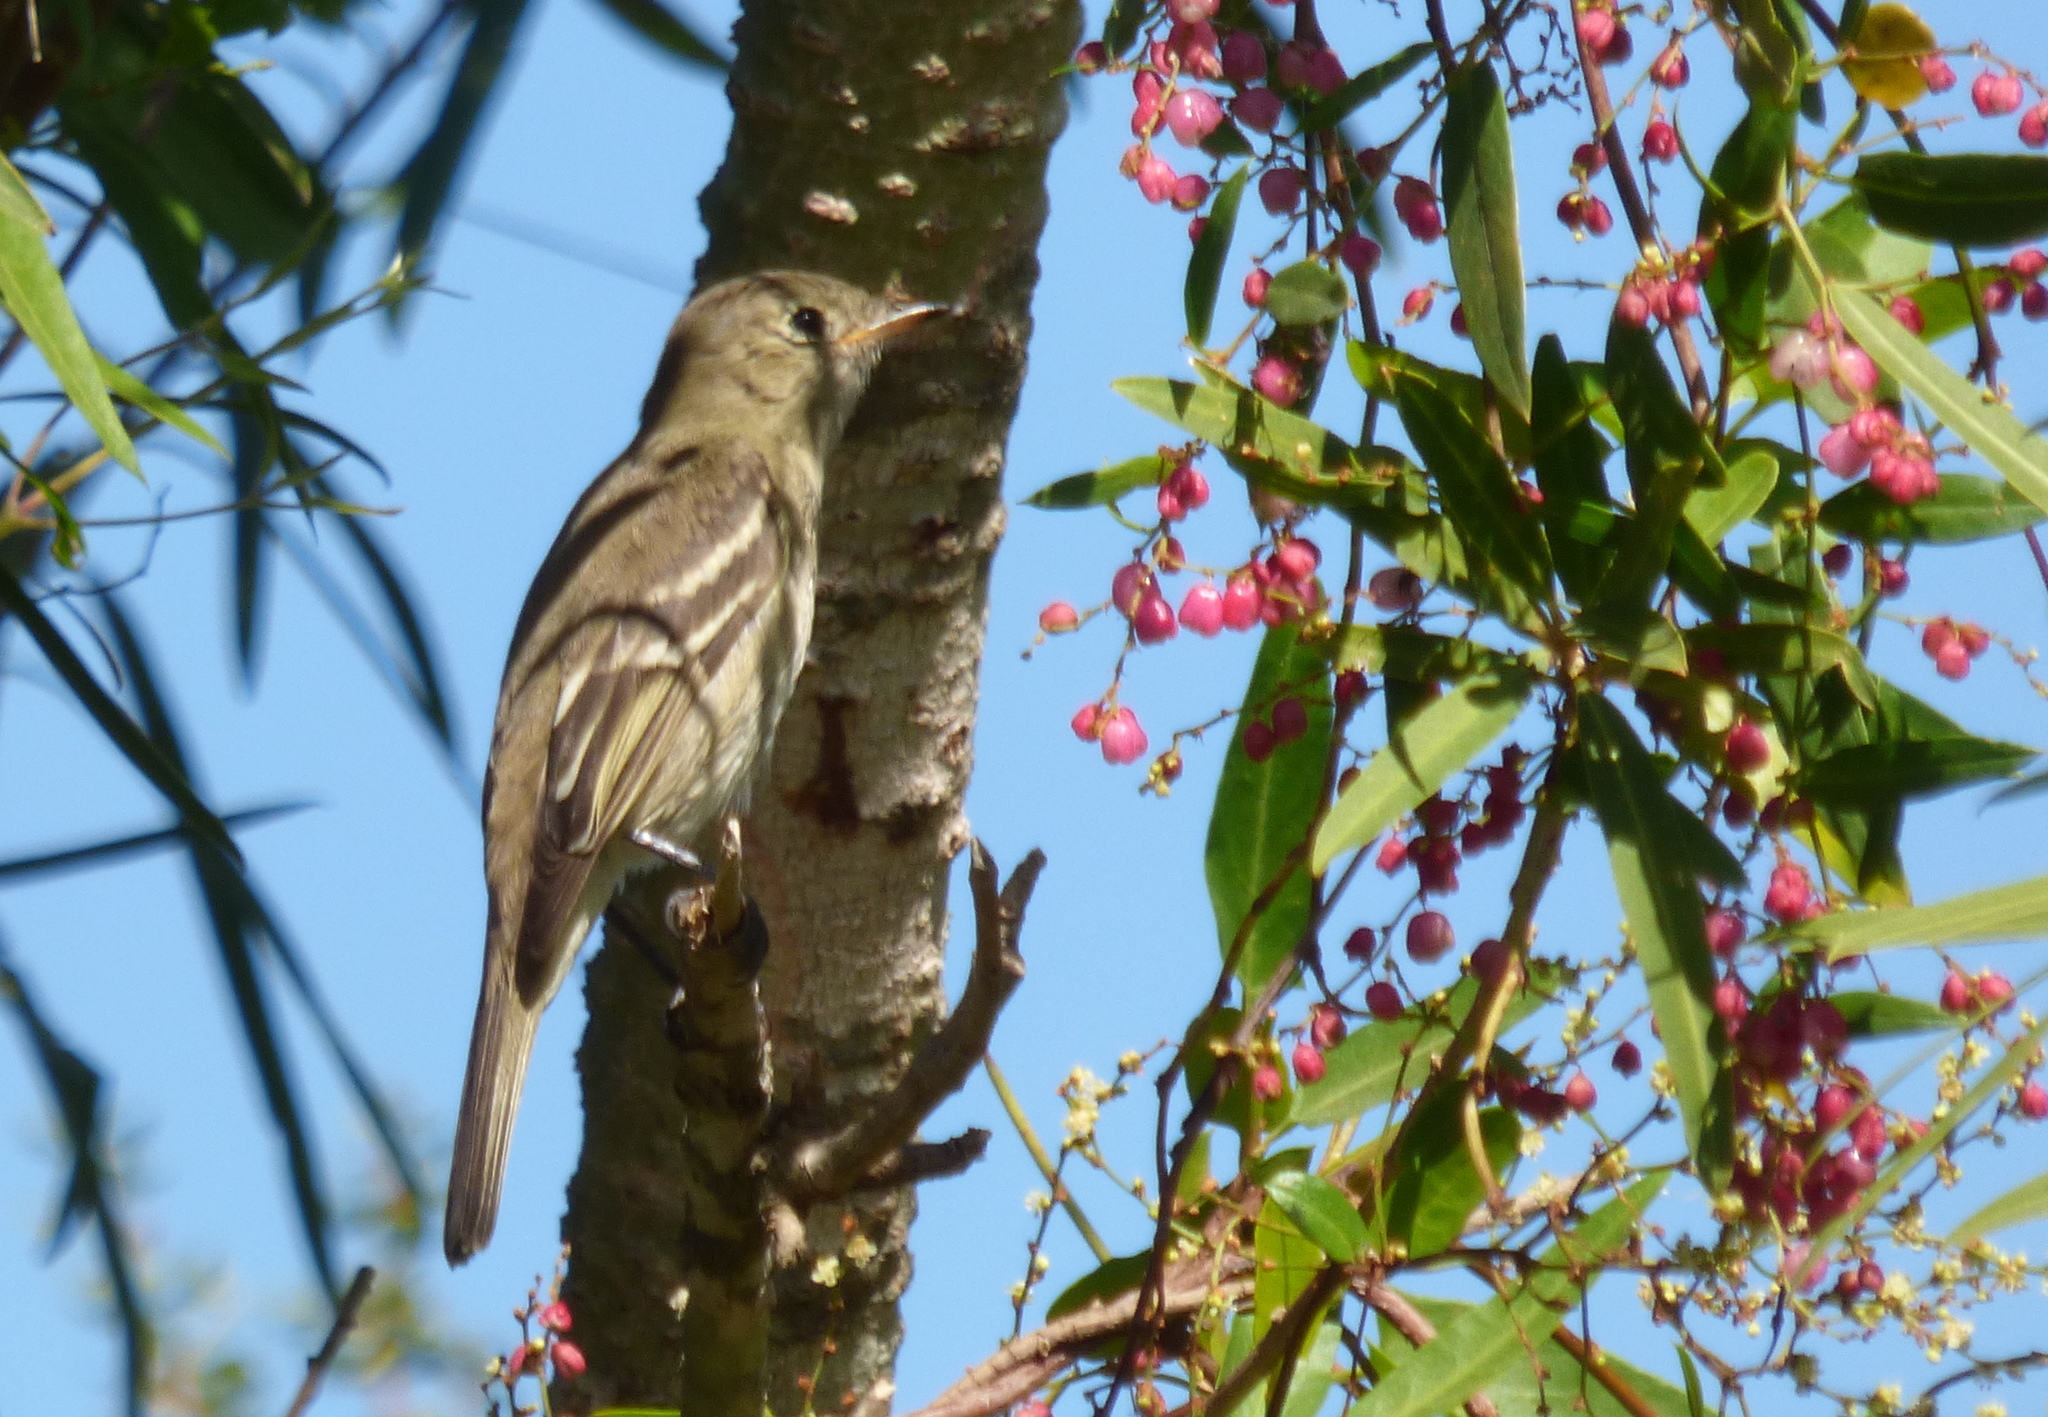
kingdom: Animalia
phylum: Chordata
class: Aves
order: Passeriformes
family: Tyrannidae
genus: Elaenia
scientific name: Elaenia albiceps
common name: White-crested elaenia
